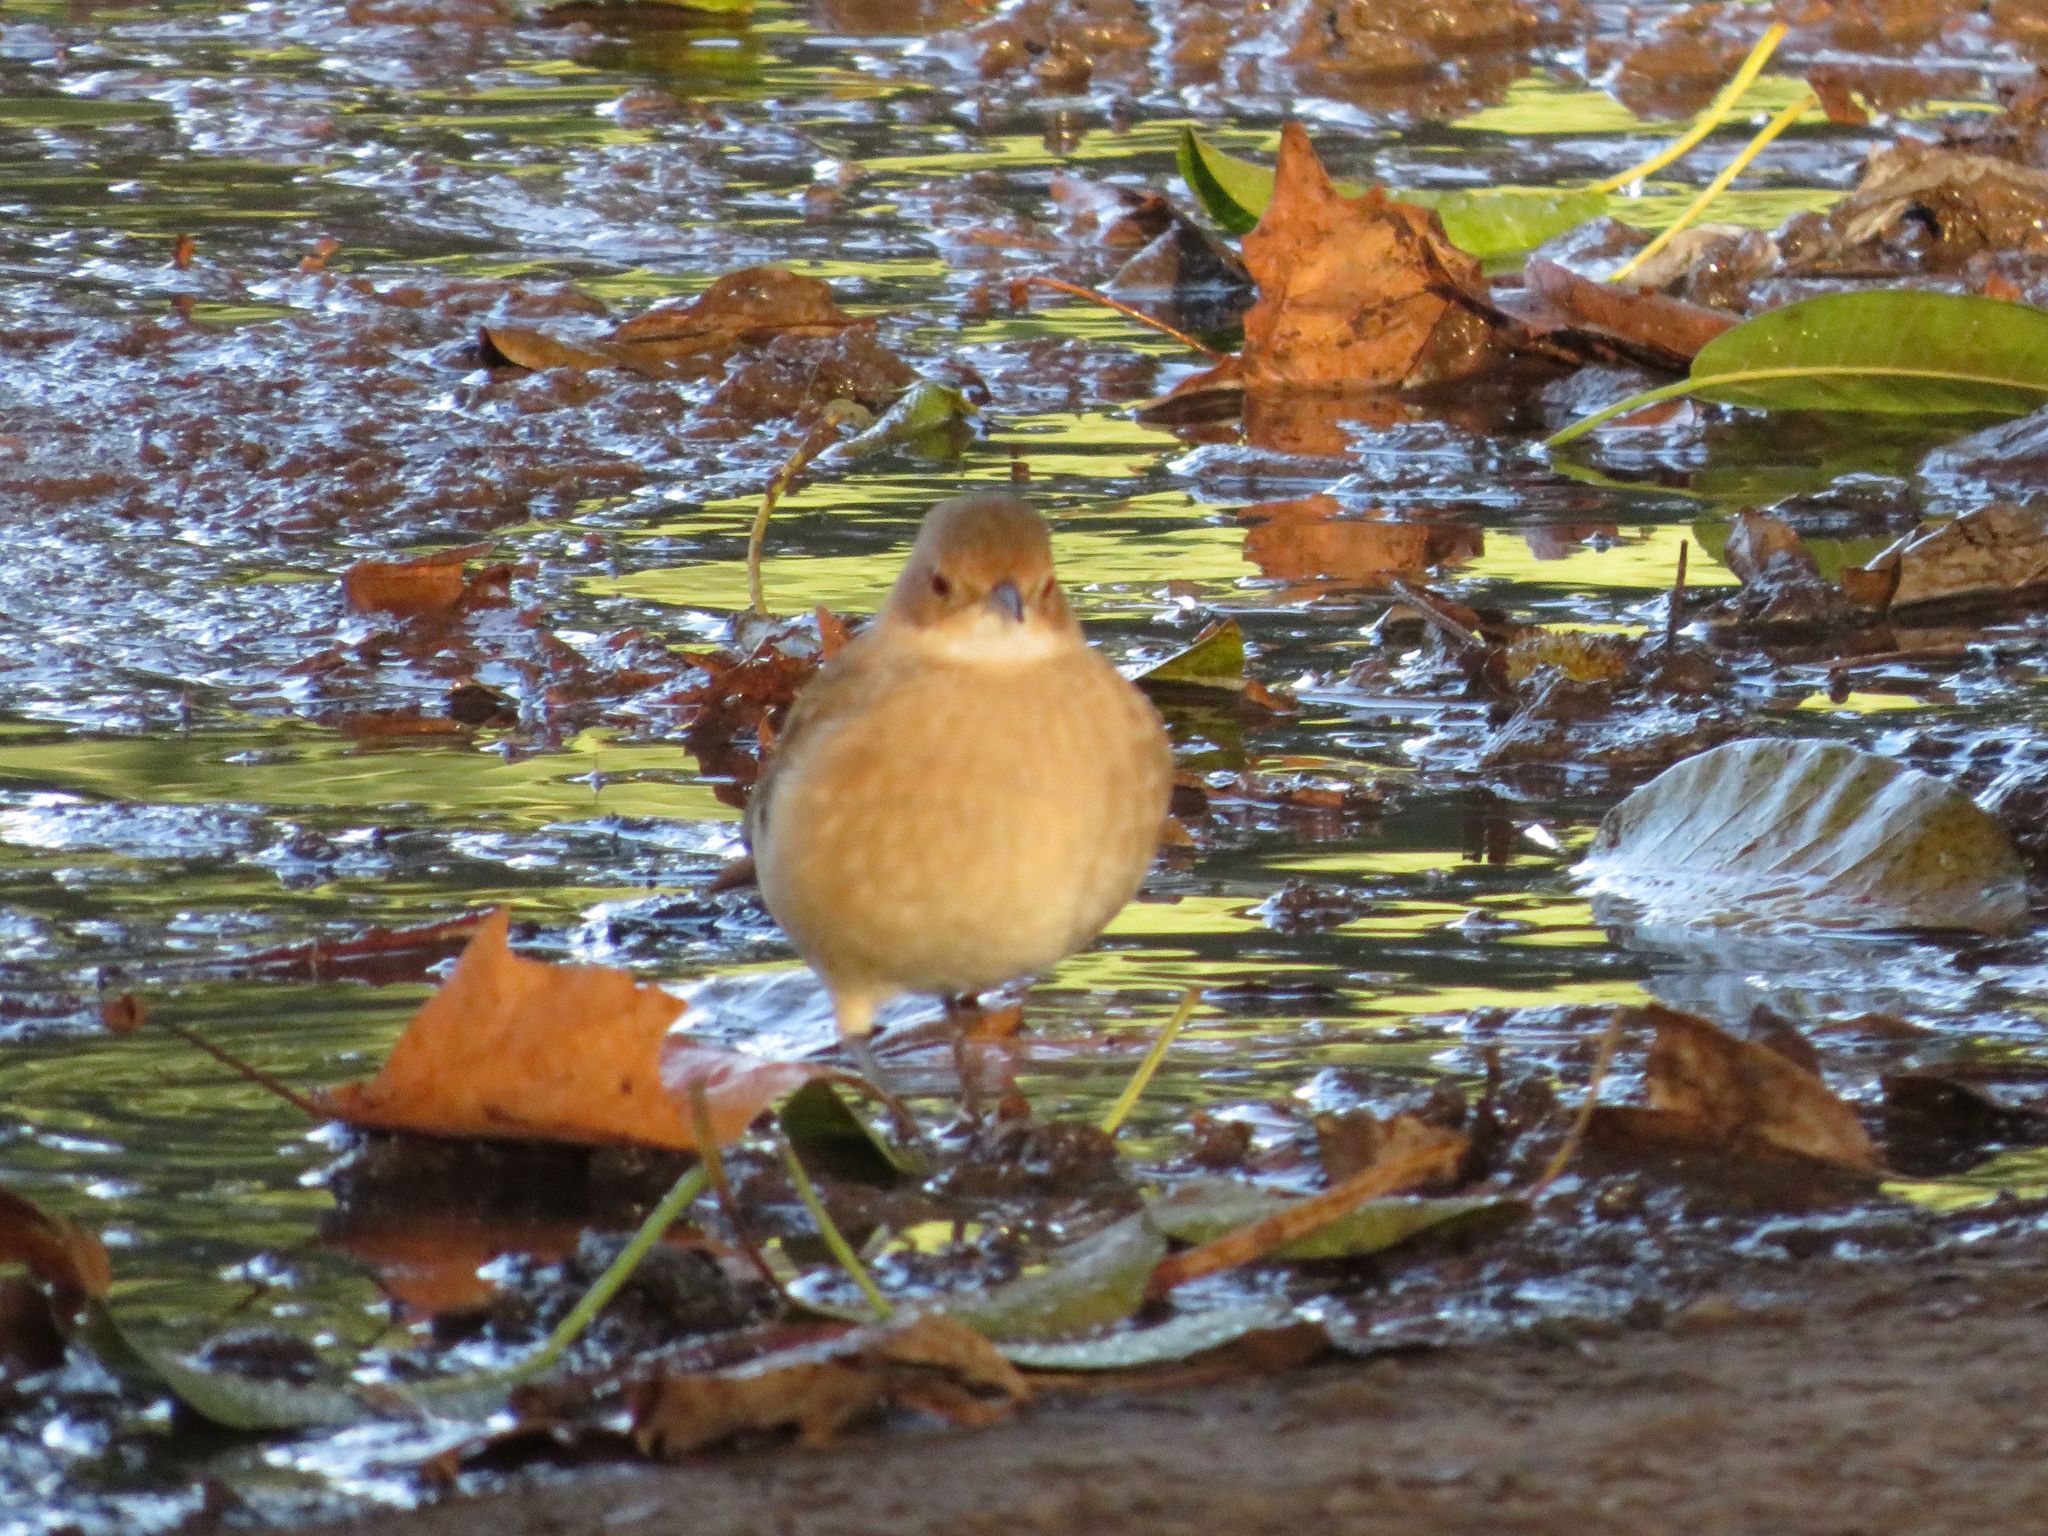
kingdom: Animalia
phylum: Chordata
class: Aves
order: Passeriformes
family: Furnariidae
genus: Furnarius
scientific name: Furnarius rufus
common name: Rufous hornero
